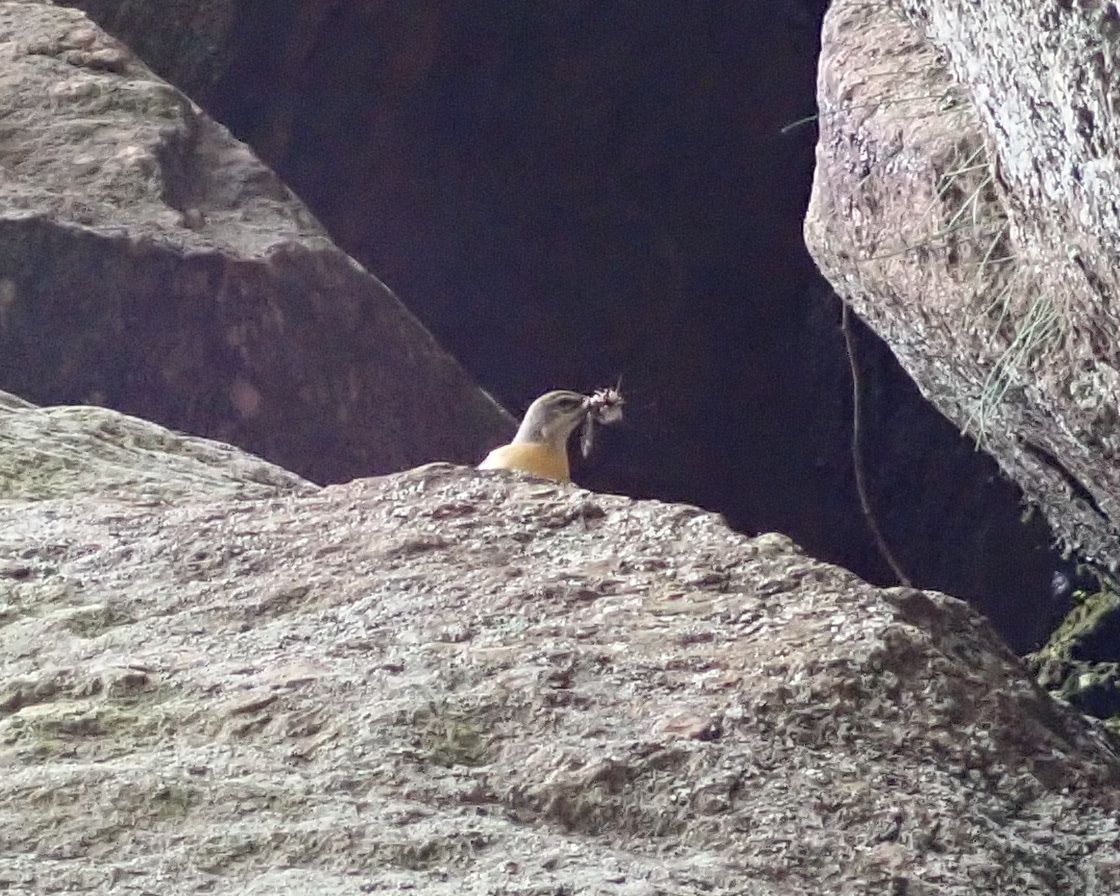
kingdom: Animalia
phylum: Chordata
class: Aves
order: Passeriformes
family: Motacillidae
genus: Motacilla
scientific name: Motacilla cinerea
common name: Grey wagtail
